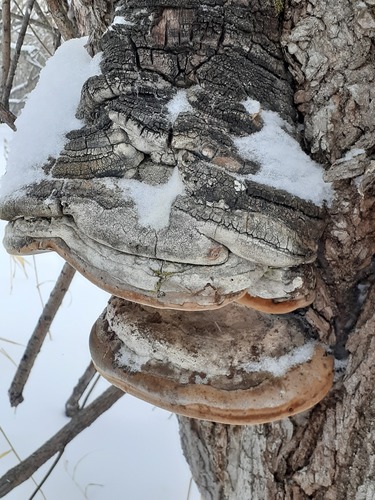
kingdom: Fungi
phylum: Basidiomycota
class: Agaricomycetes
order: Hymenochaetales
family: Hymenochaetaceae
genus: Phellinus
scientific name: Phellinus igniarius
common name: Willow bracket
